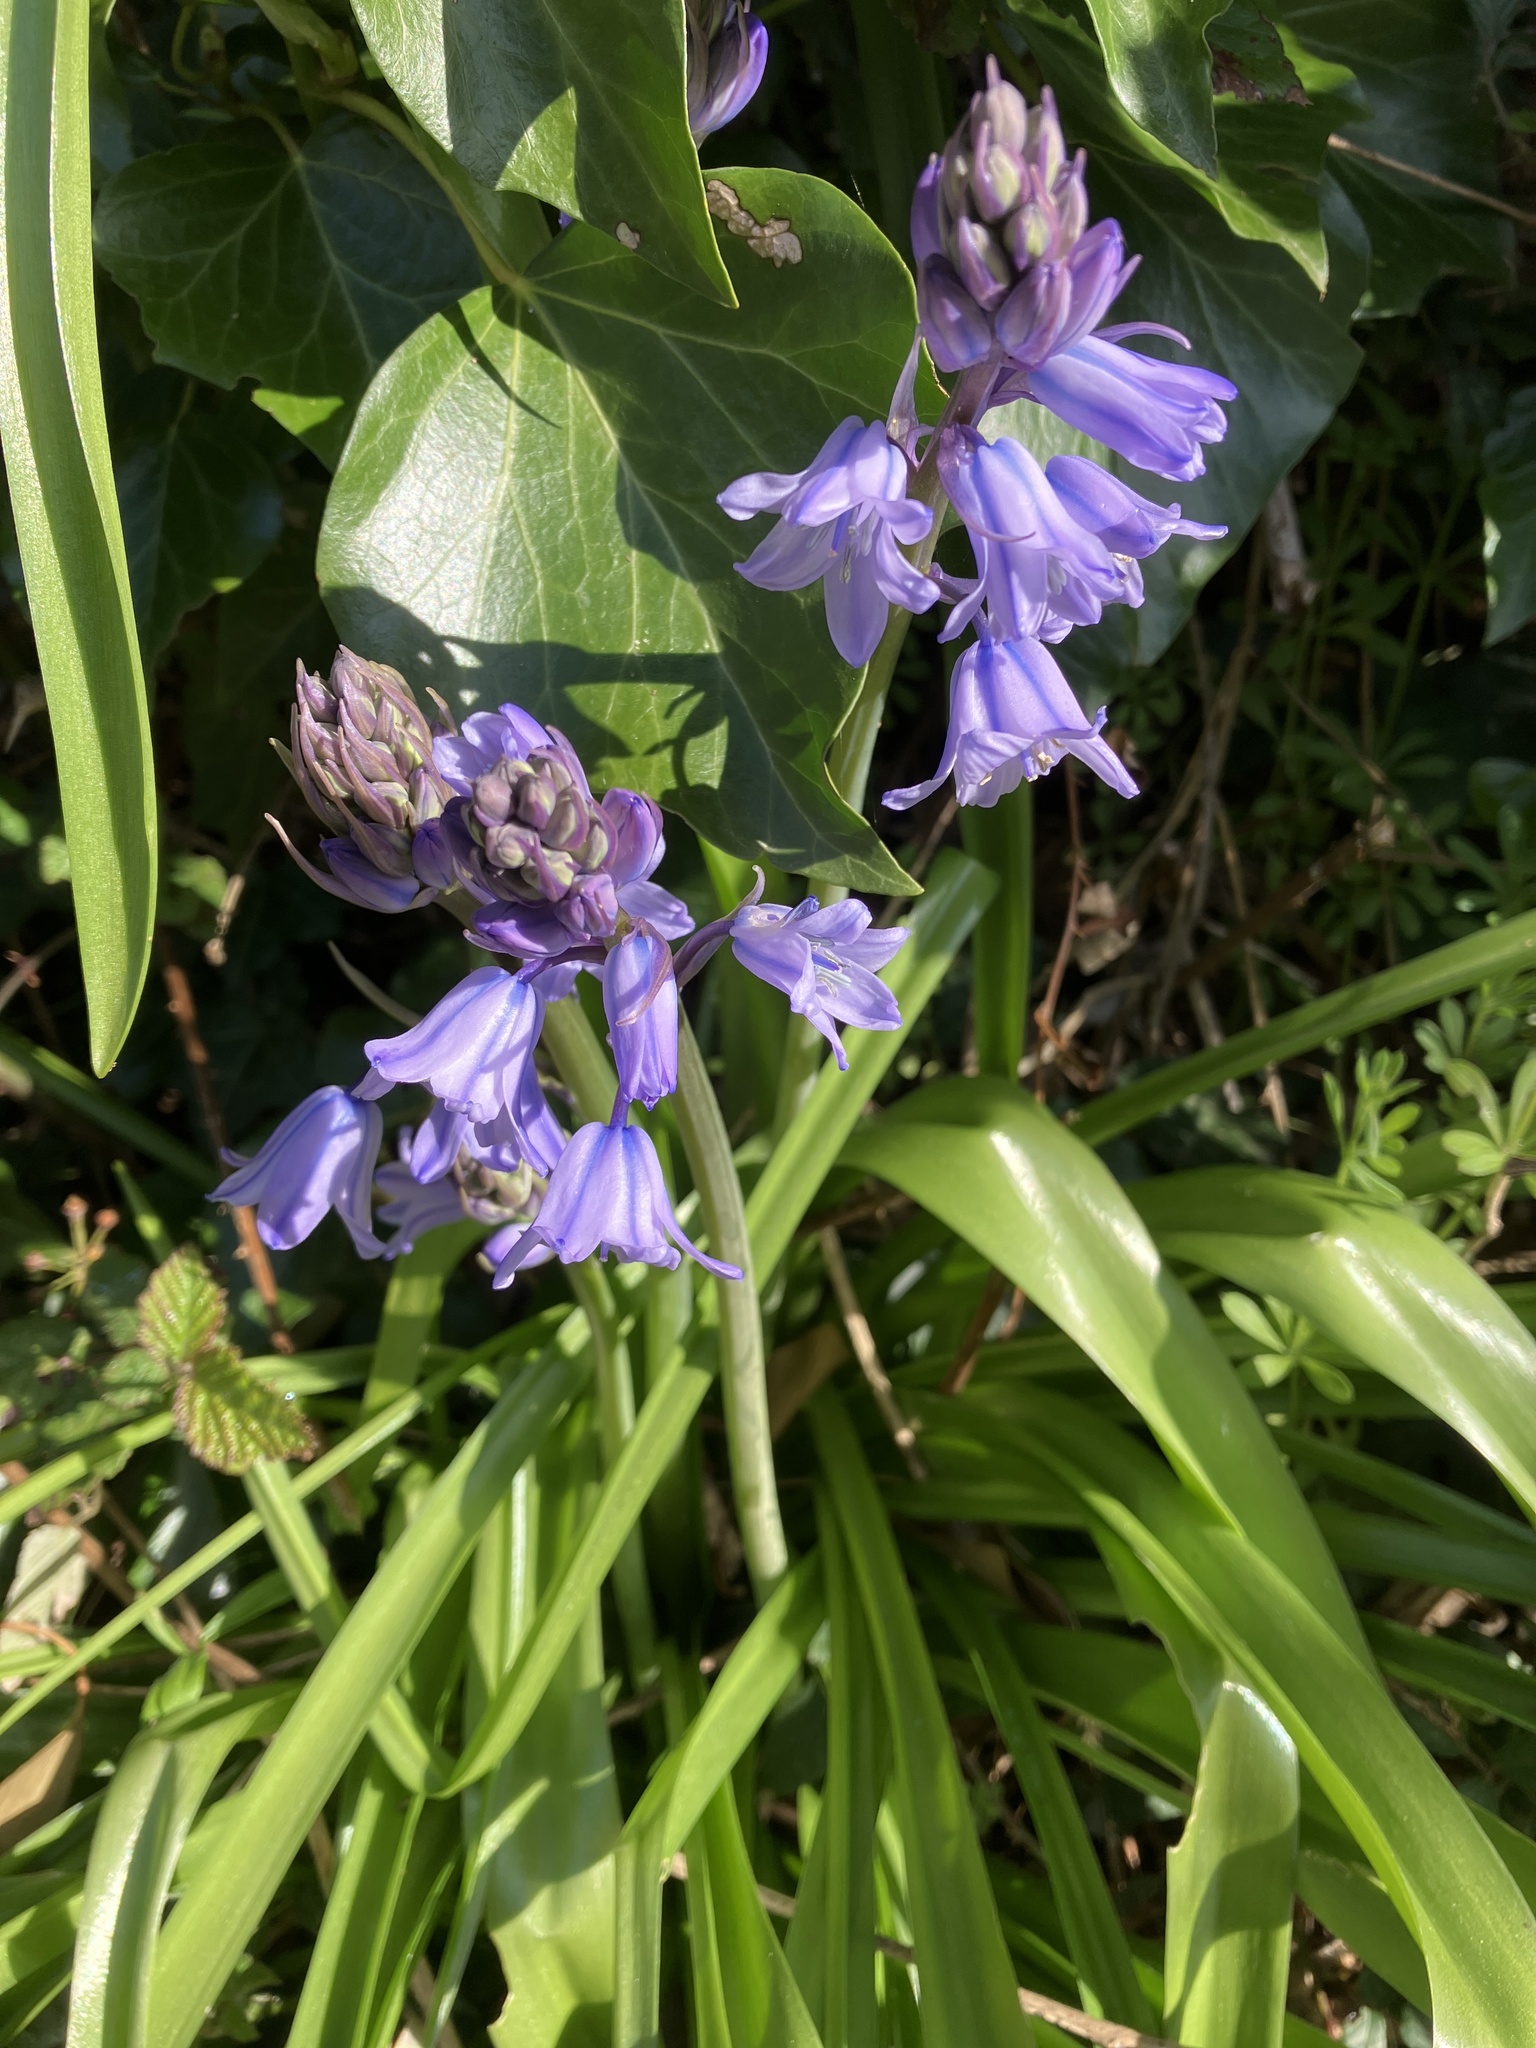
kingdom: Plantae
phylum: Tracheophyta
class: Liliopsida
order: Asparagales
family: Asparagaceae
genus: Hyacinthoides
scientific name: Hyacinthoides hispanica
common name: Spanish bluebell
